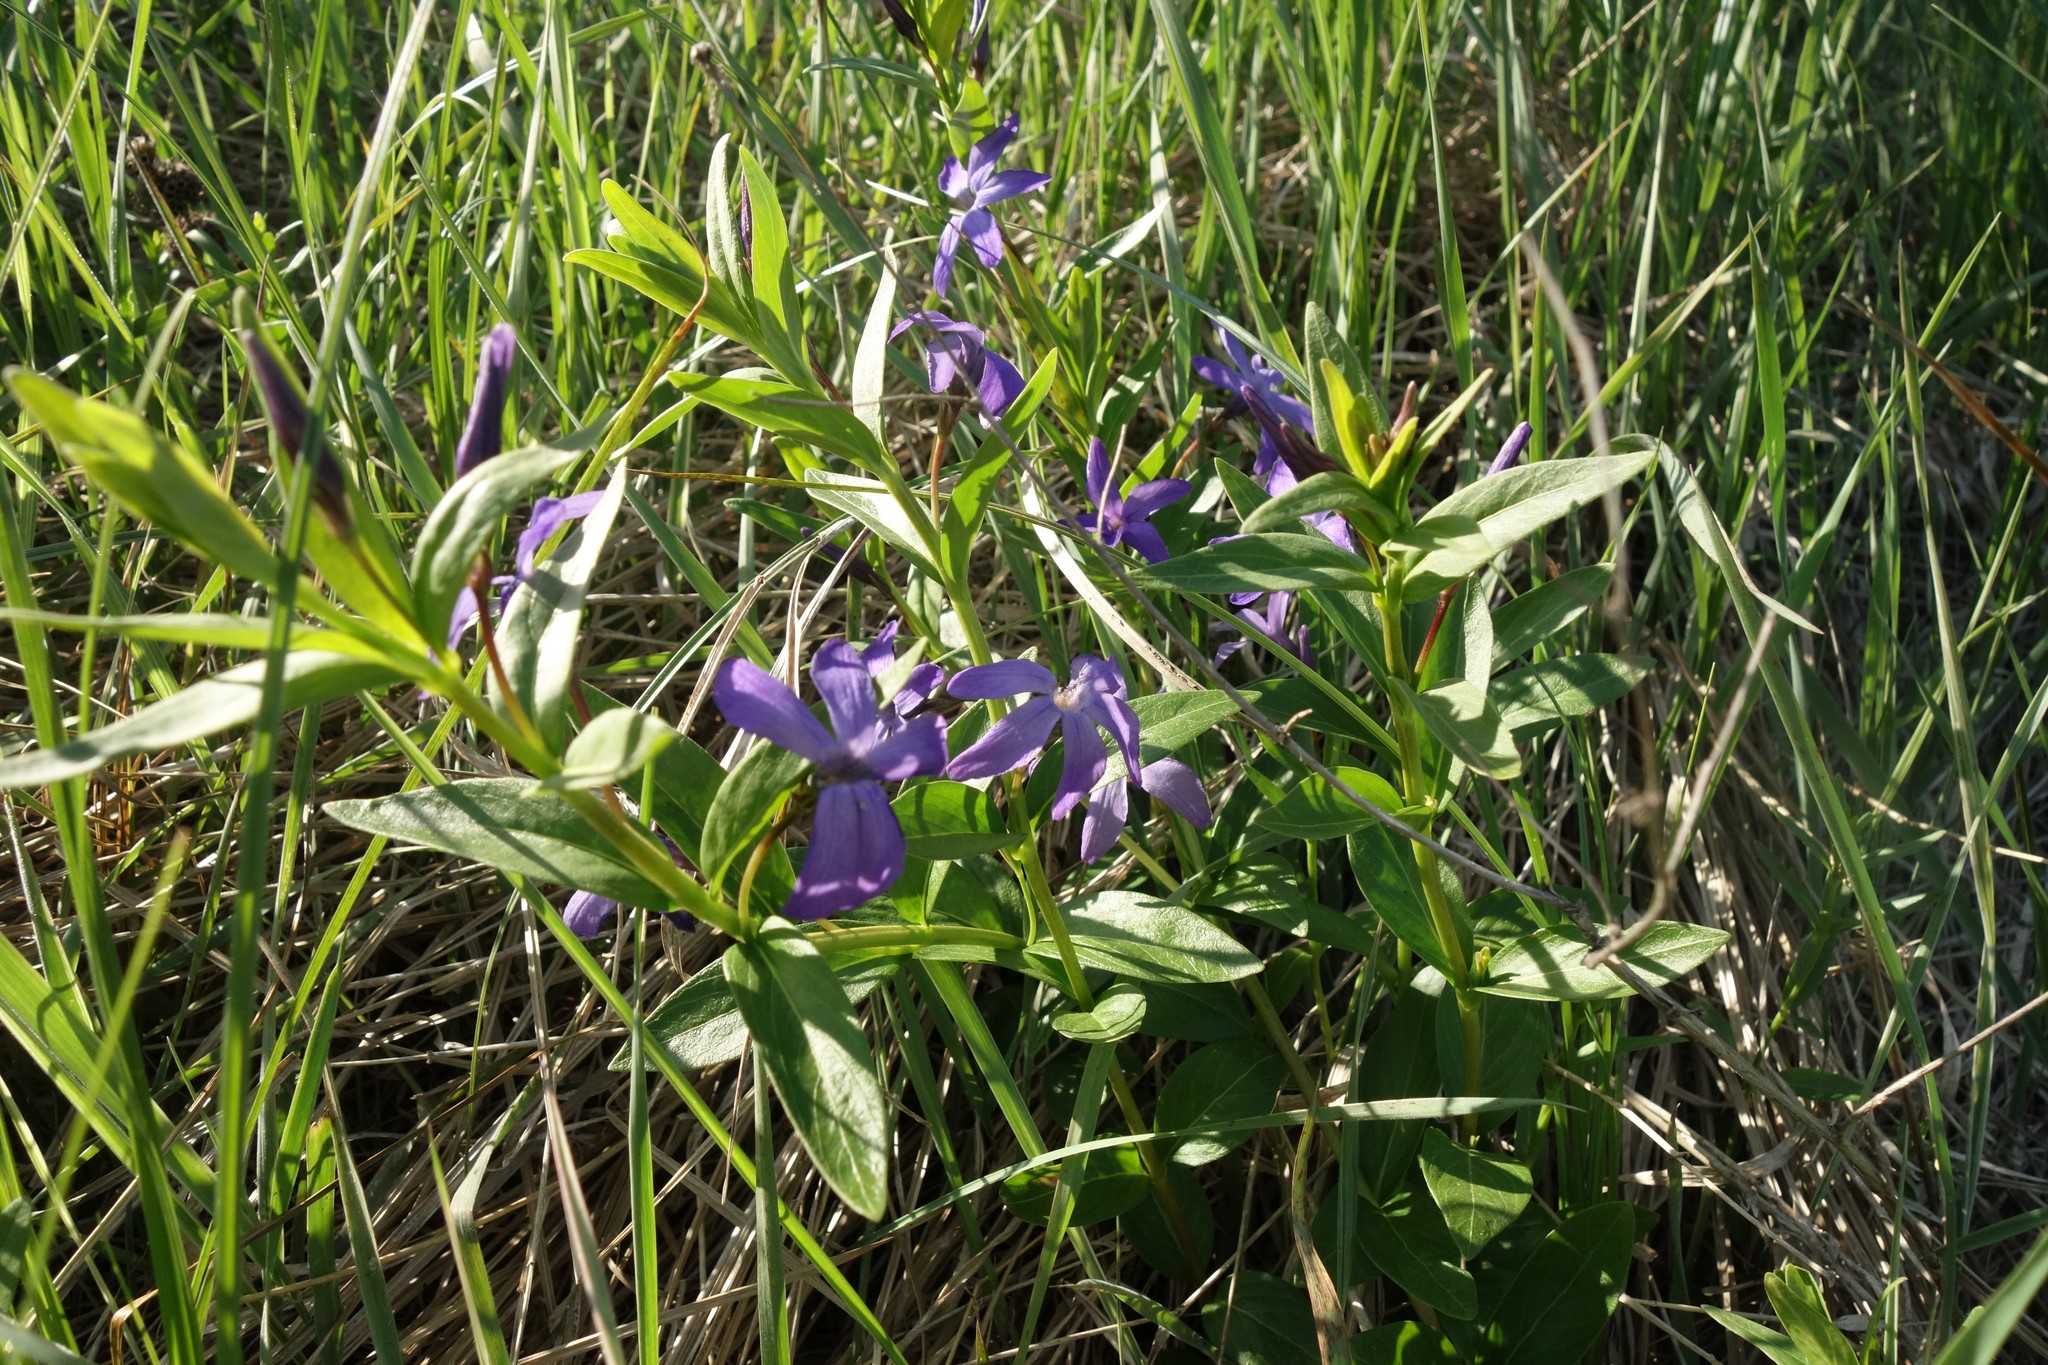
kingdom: Plantae
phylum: Tracheophyta
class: Magnoliopsida
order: Gentianales
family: Apocynaceae
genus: Vinca
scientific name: Vinca herbacea
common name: Herbaceous periwinkle
